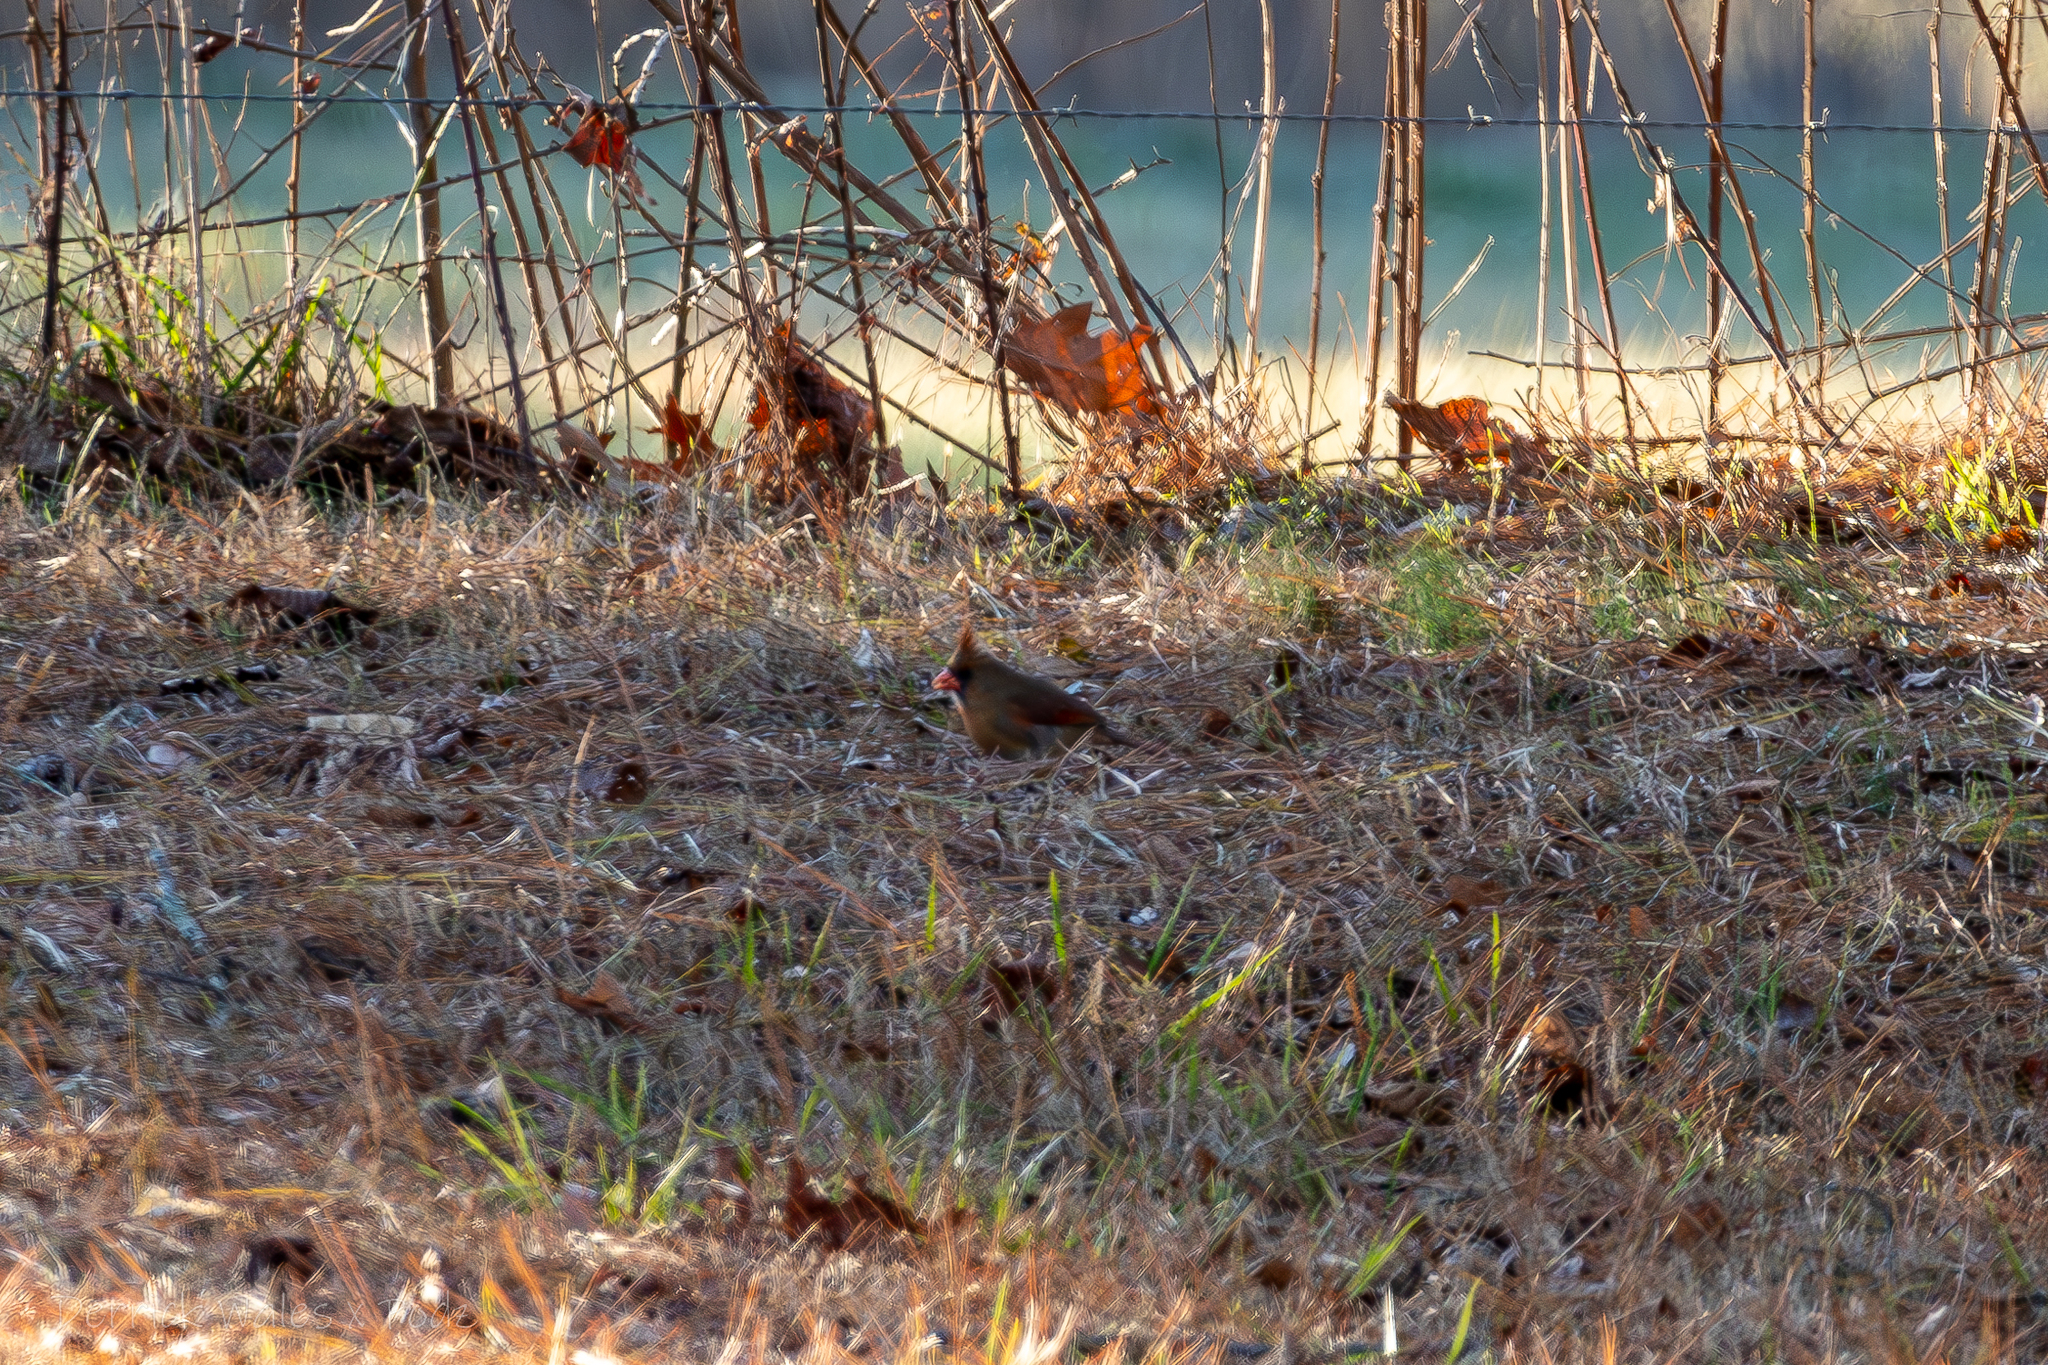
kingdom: Animalia
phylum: Chordata
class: Aves
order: Passeriformes
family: Cardinalidae
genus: Cardinalis
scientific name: Cardinalis cardinalis
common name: Northern cardinal
